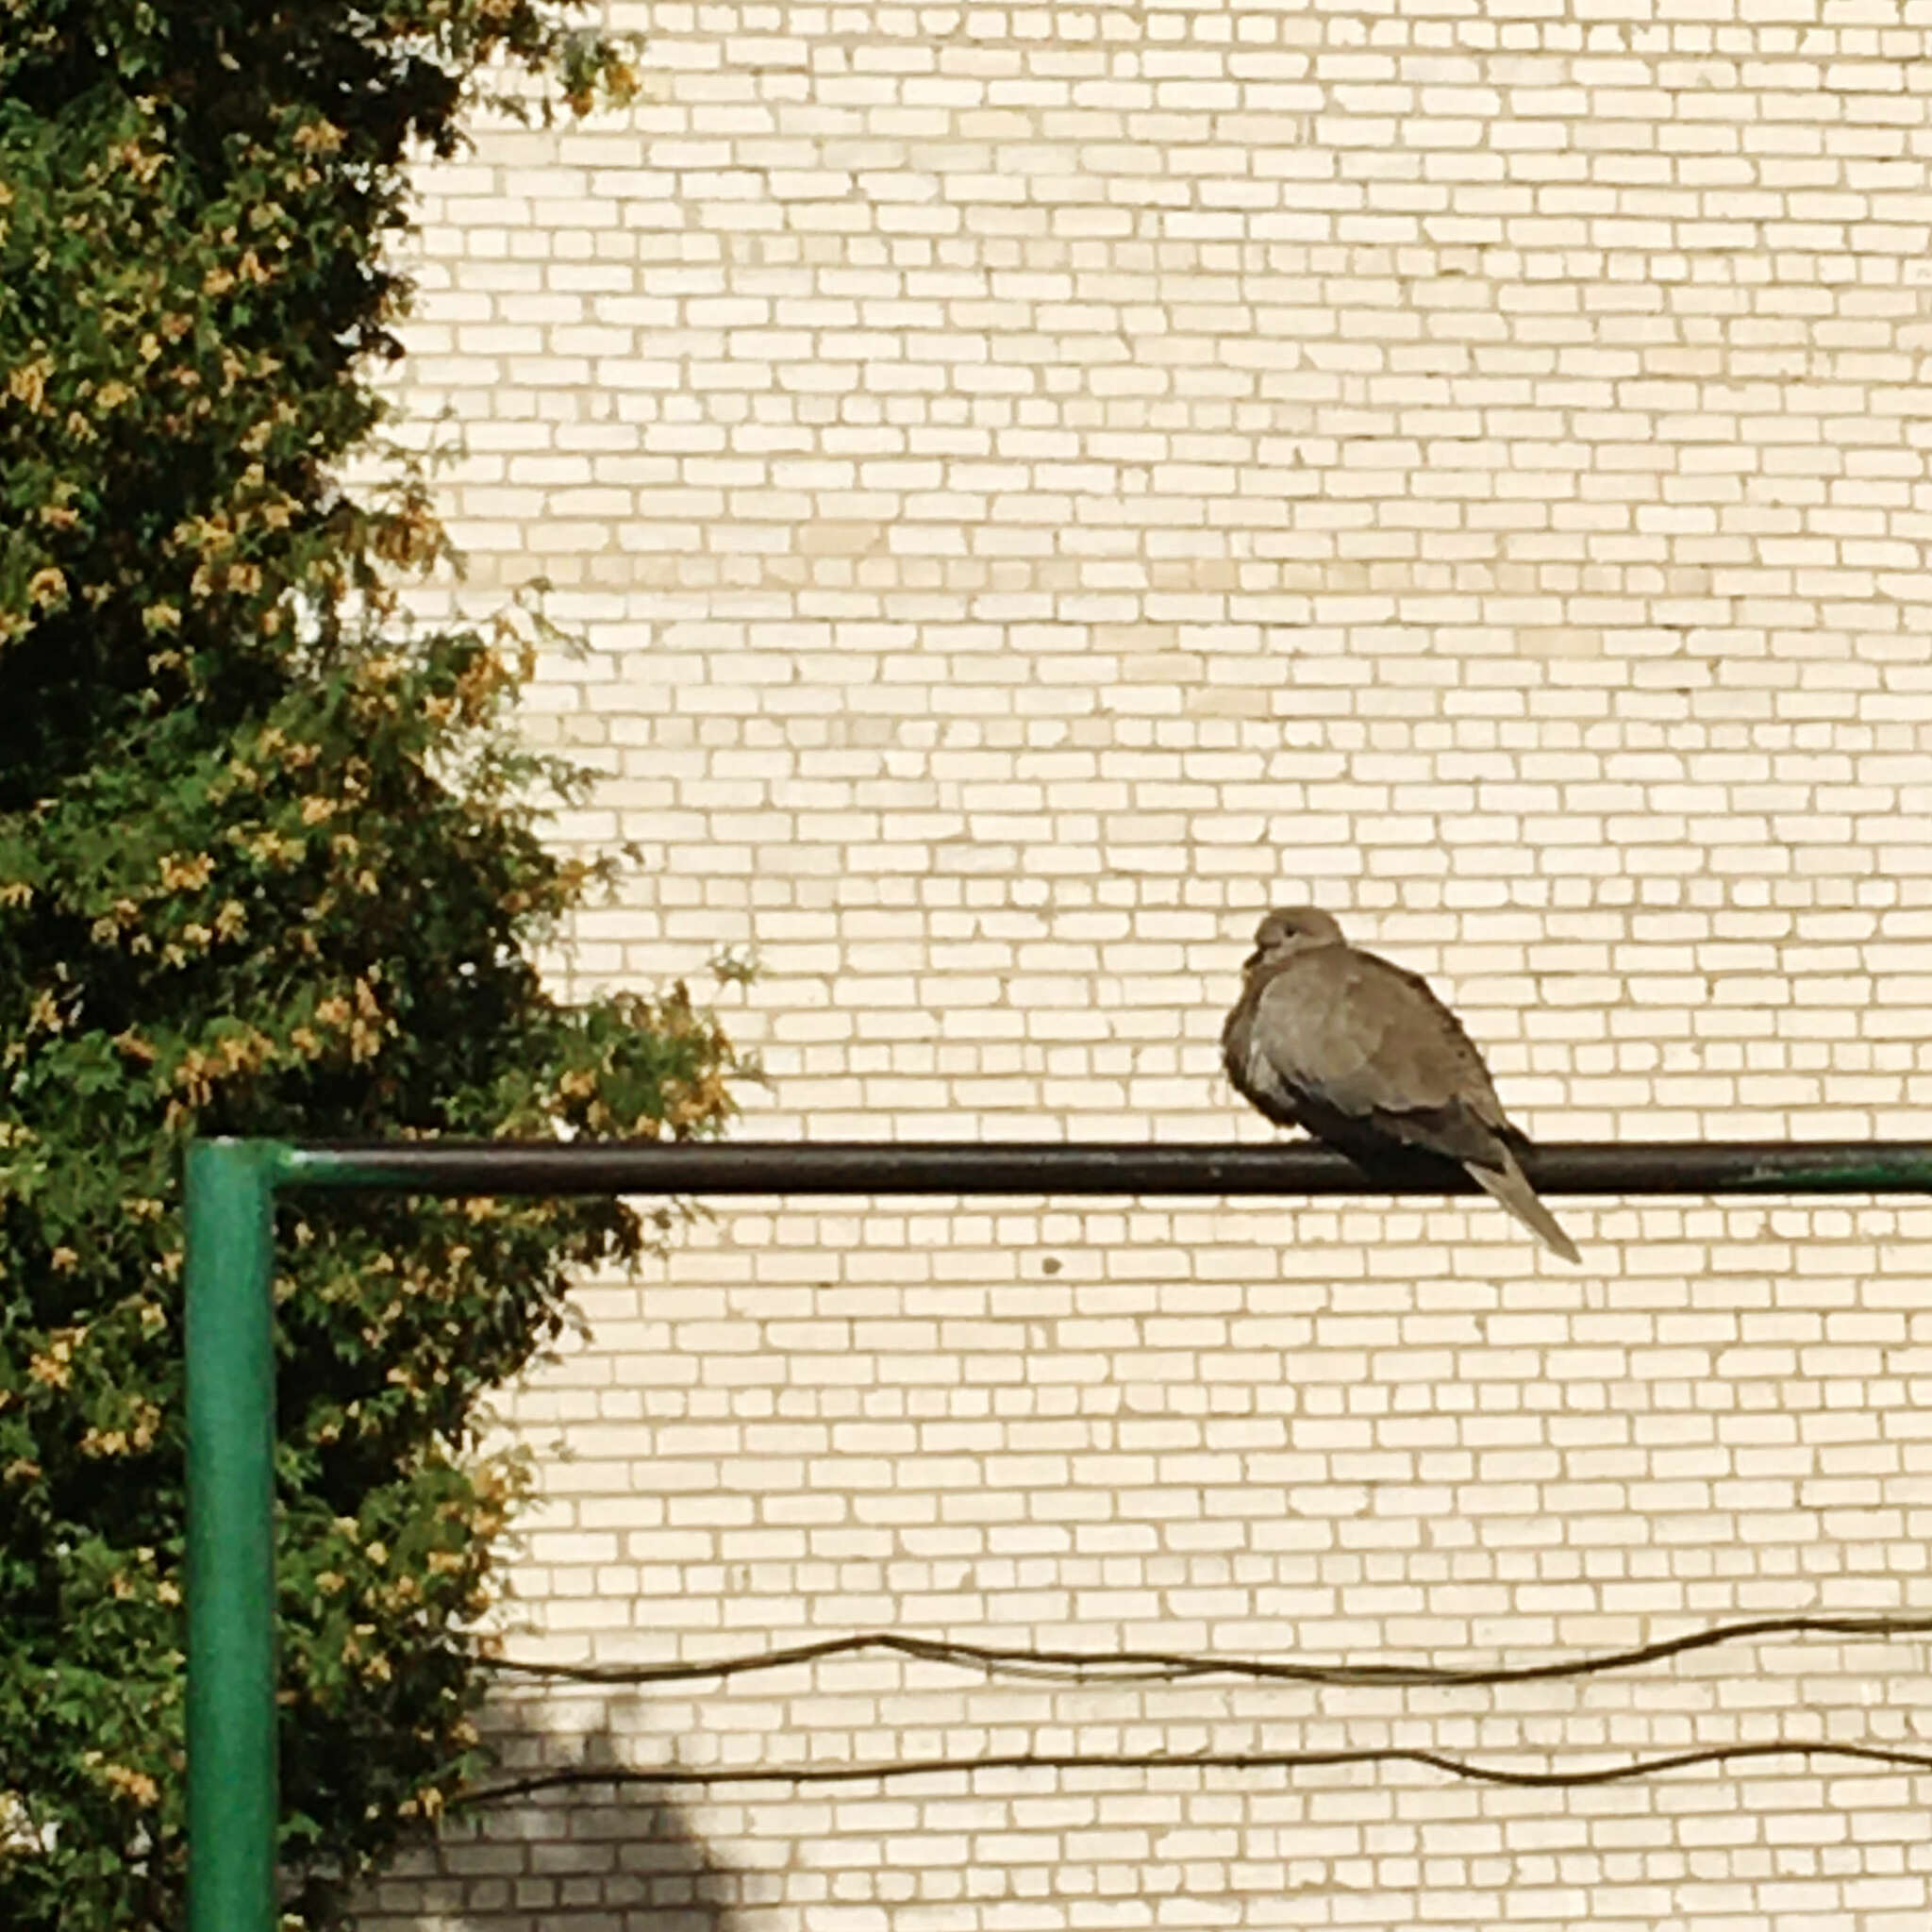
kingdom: Animalia
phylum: Chordata
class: Aves
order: Columbiformes
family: Columbidae
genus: Streptopelia
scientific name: Streptopelia decaocto
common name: Eurasian collared dove
